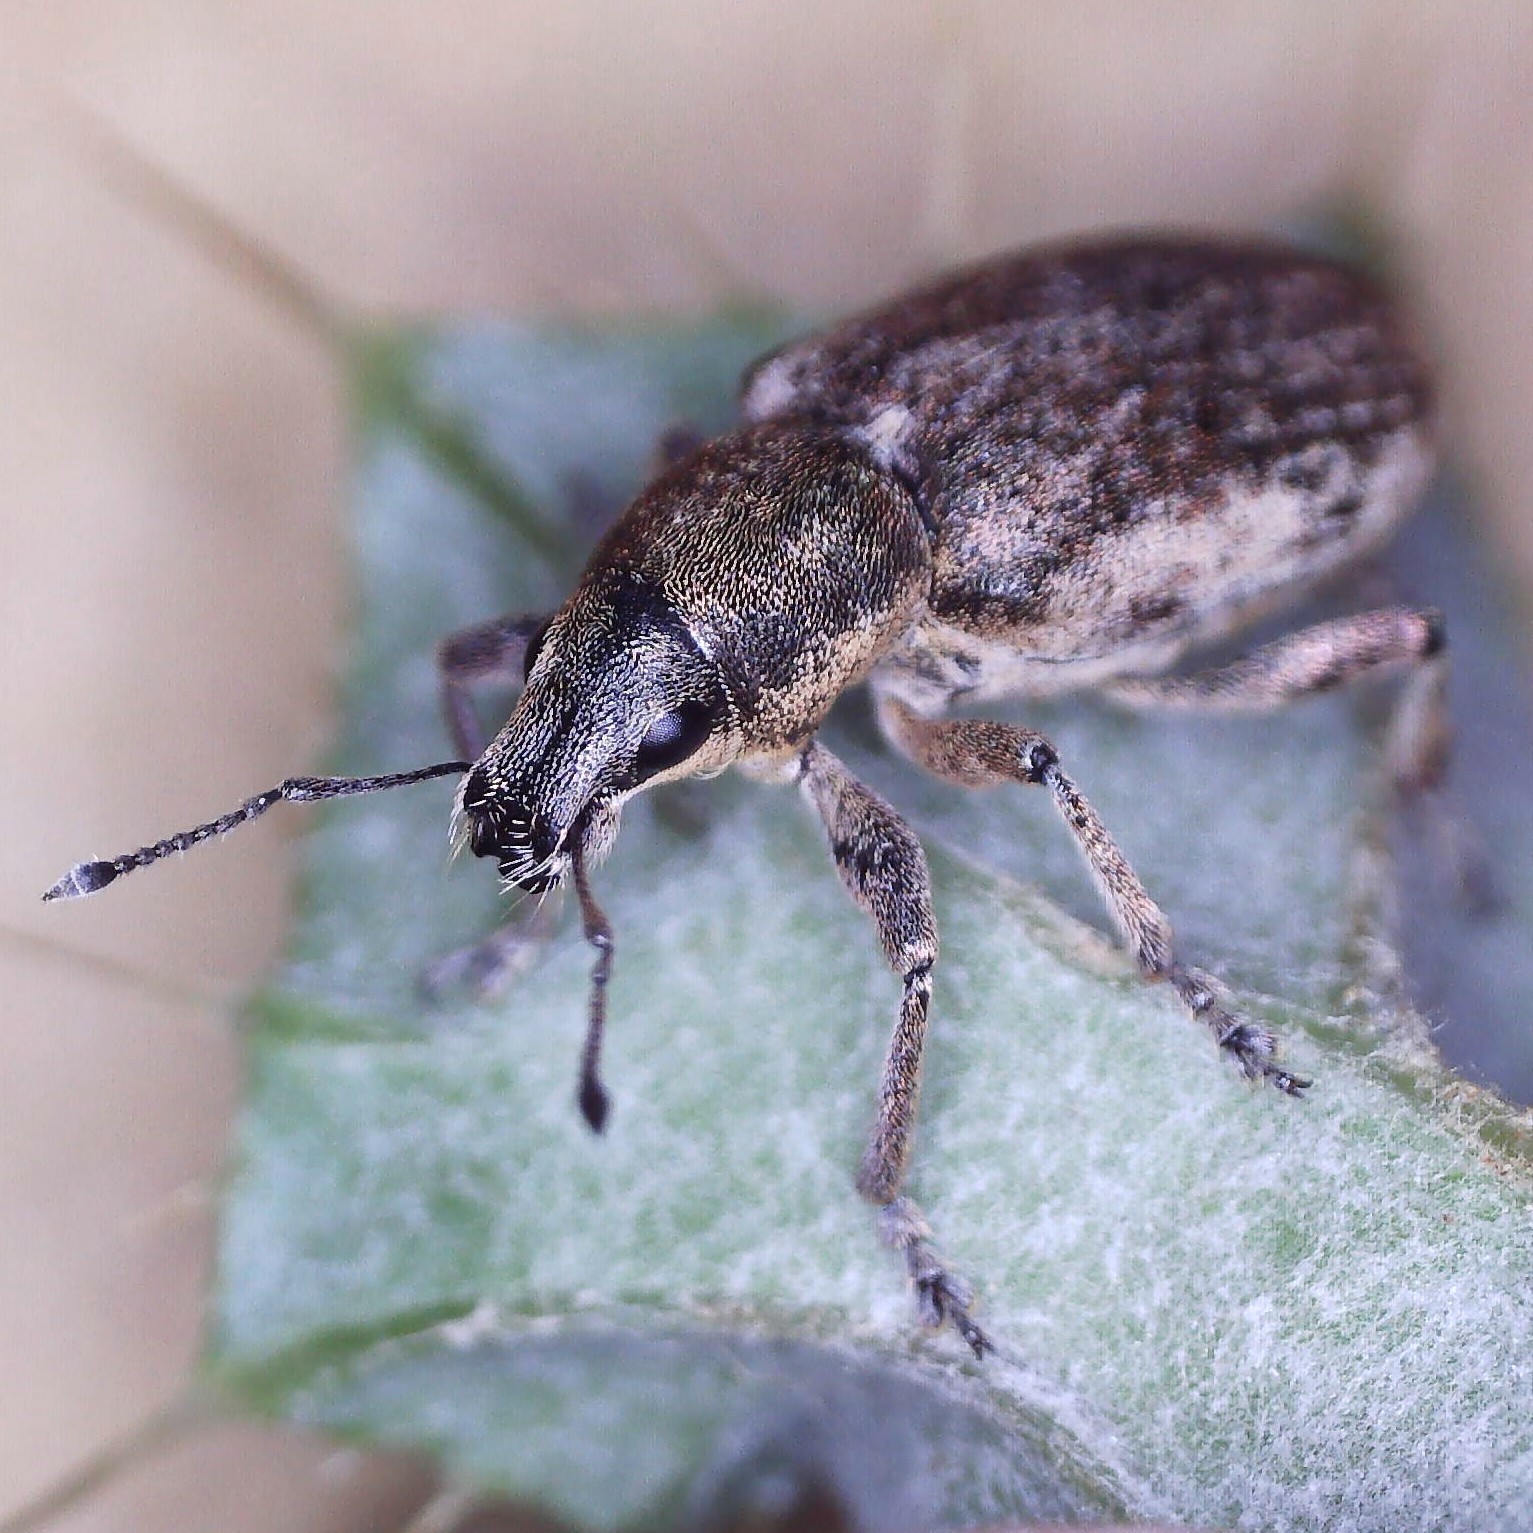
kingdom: Animalia
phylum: Arthropoda
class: Insecta
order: Coleoptera
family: Curculionidae
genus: Tanymecus
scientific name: Tanymecus palliatus
